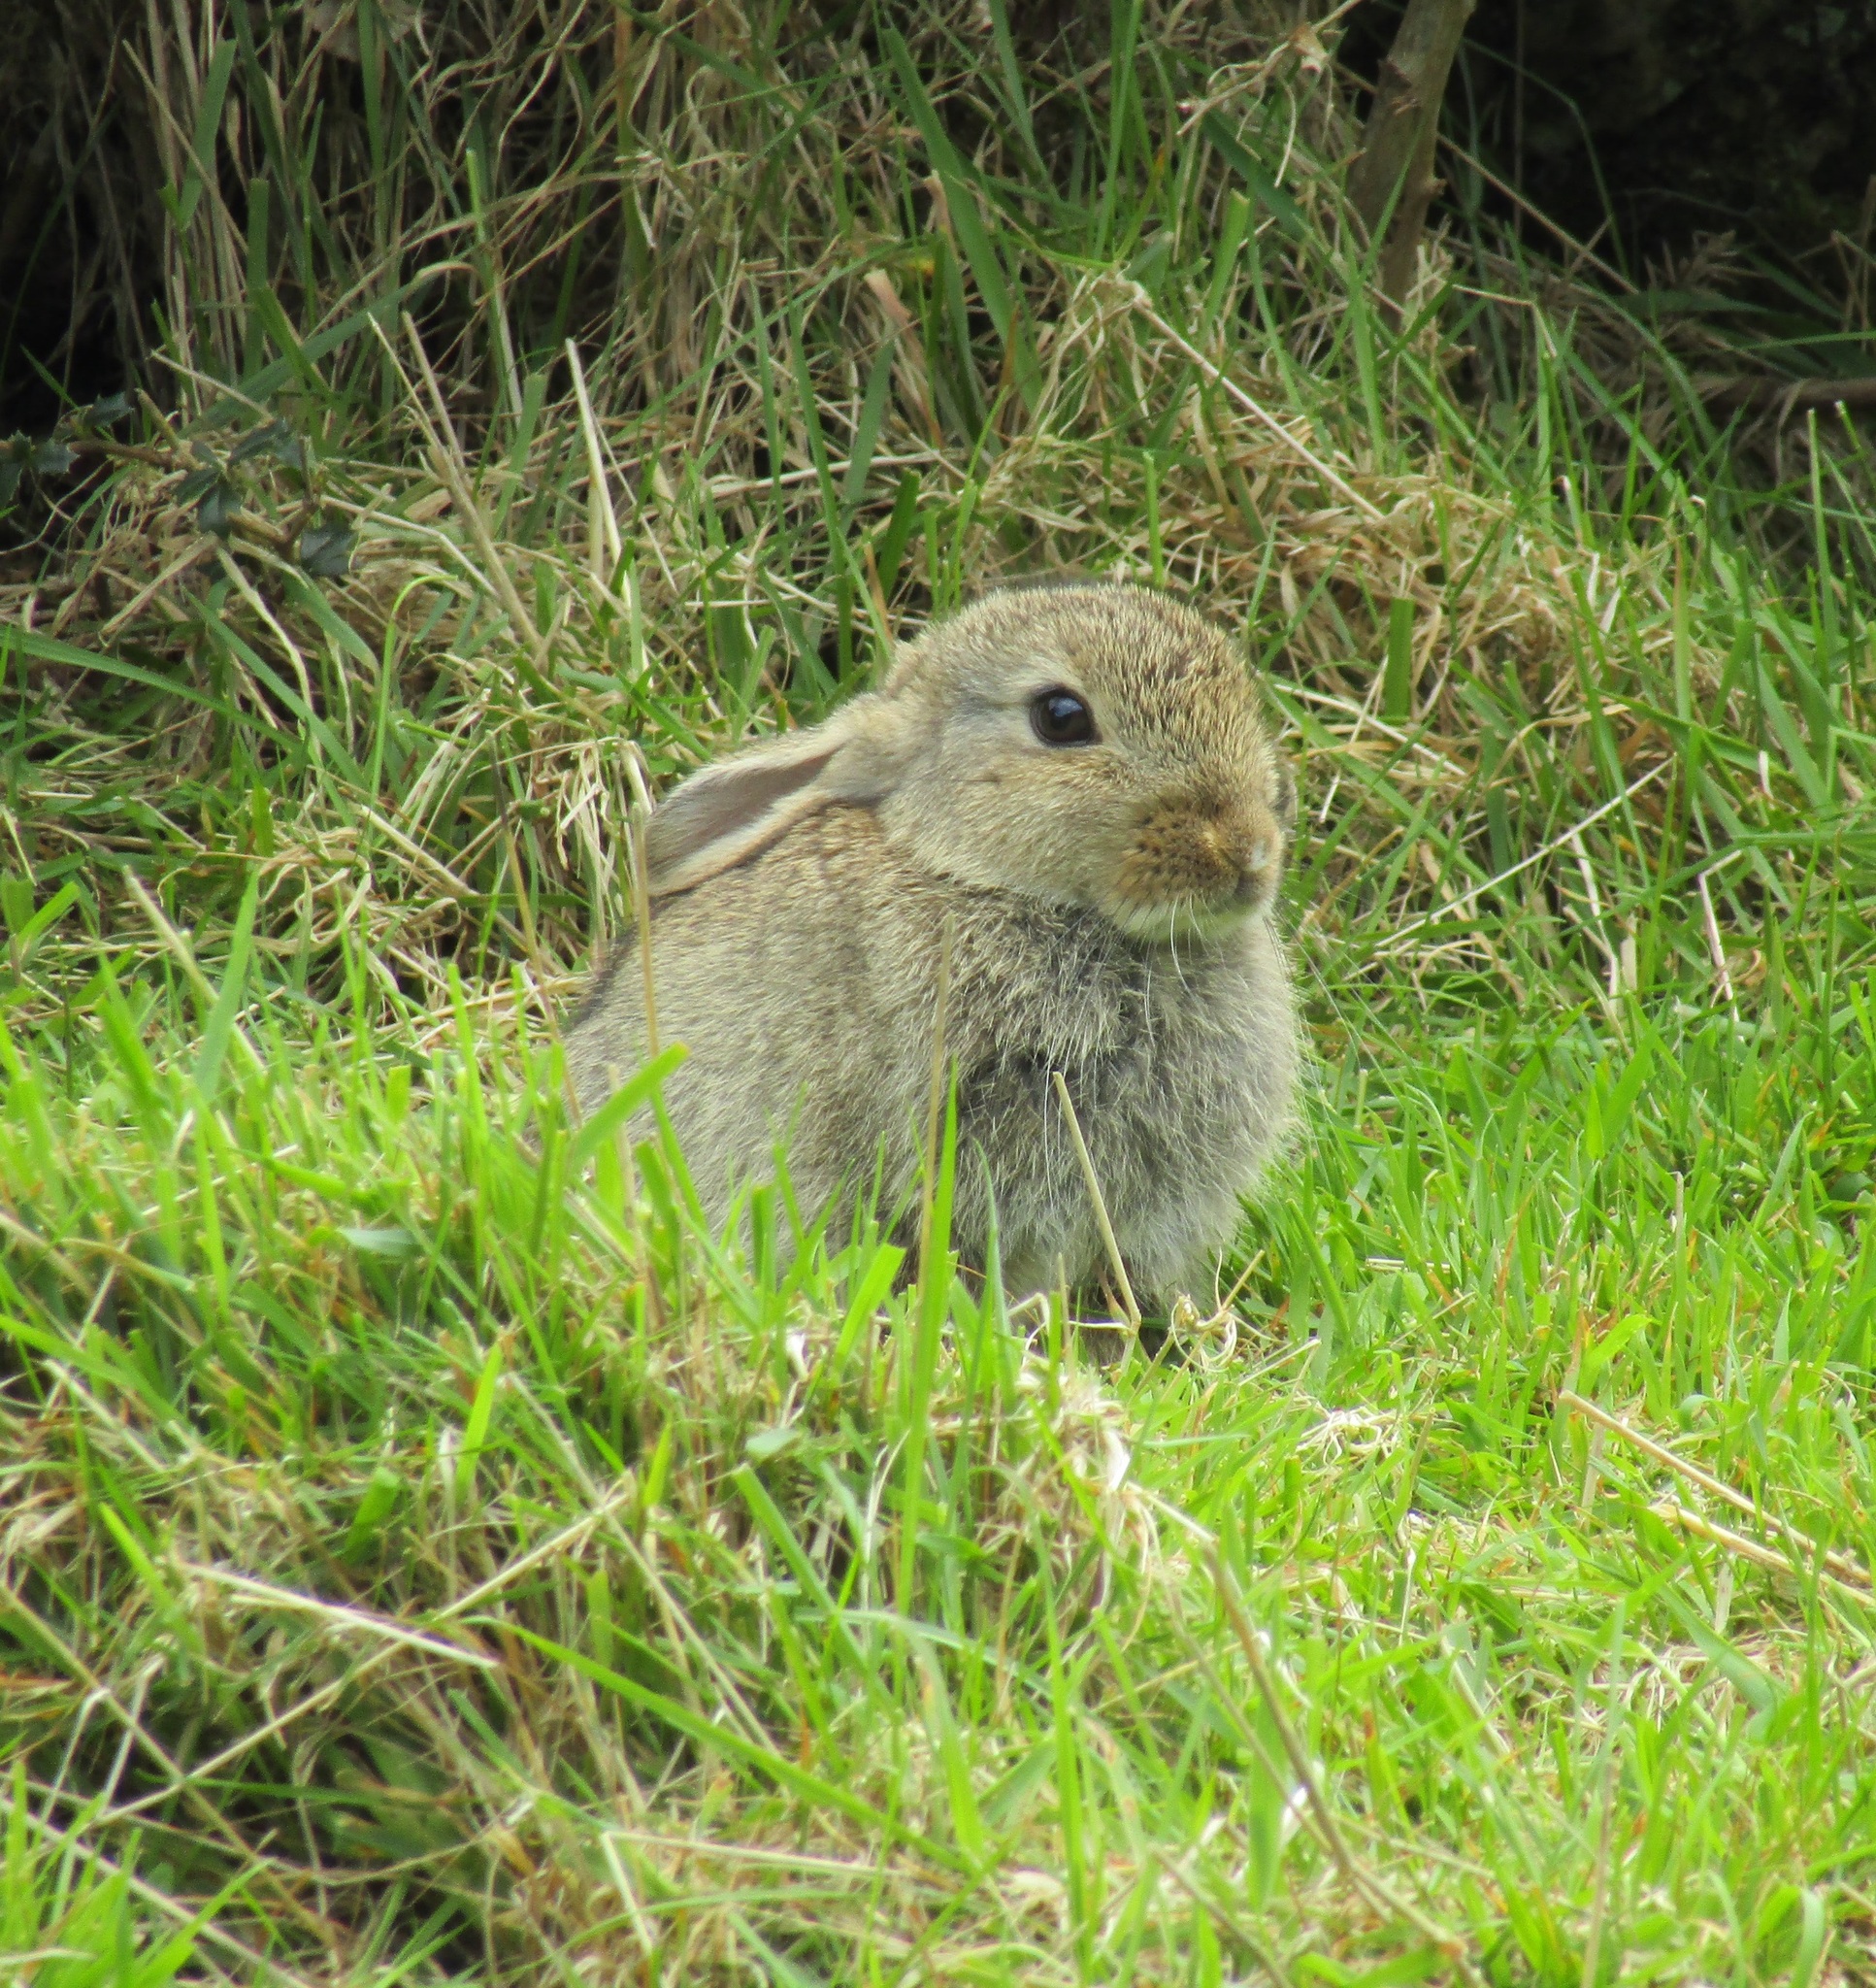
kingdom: Animalia
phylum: Chordata
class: Mammalia
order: Lagomorpha
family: Leporidae
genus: Oryctolagus
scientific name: Oryctolagus cuniculus
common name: European rabbit
